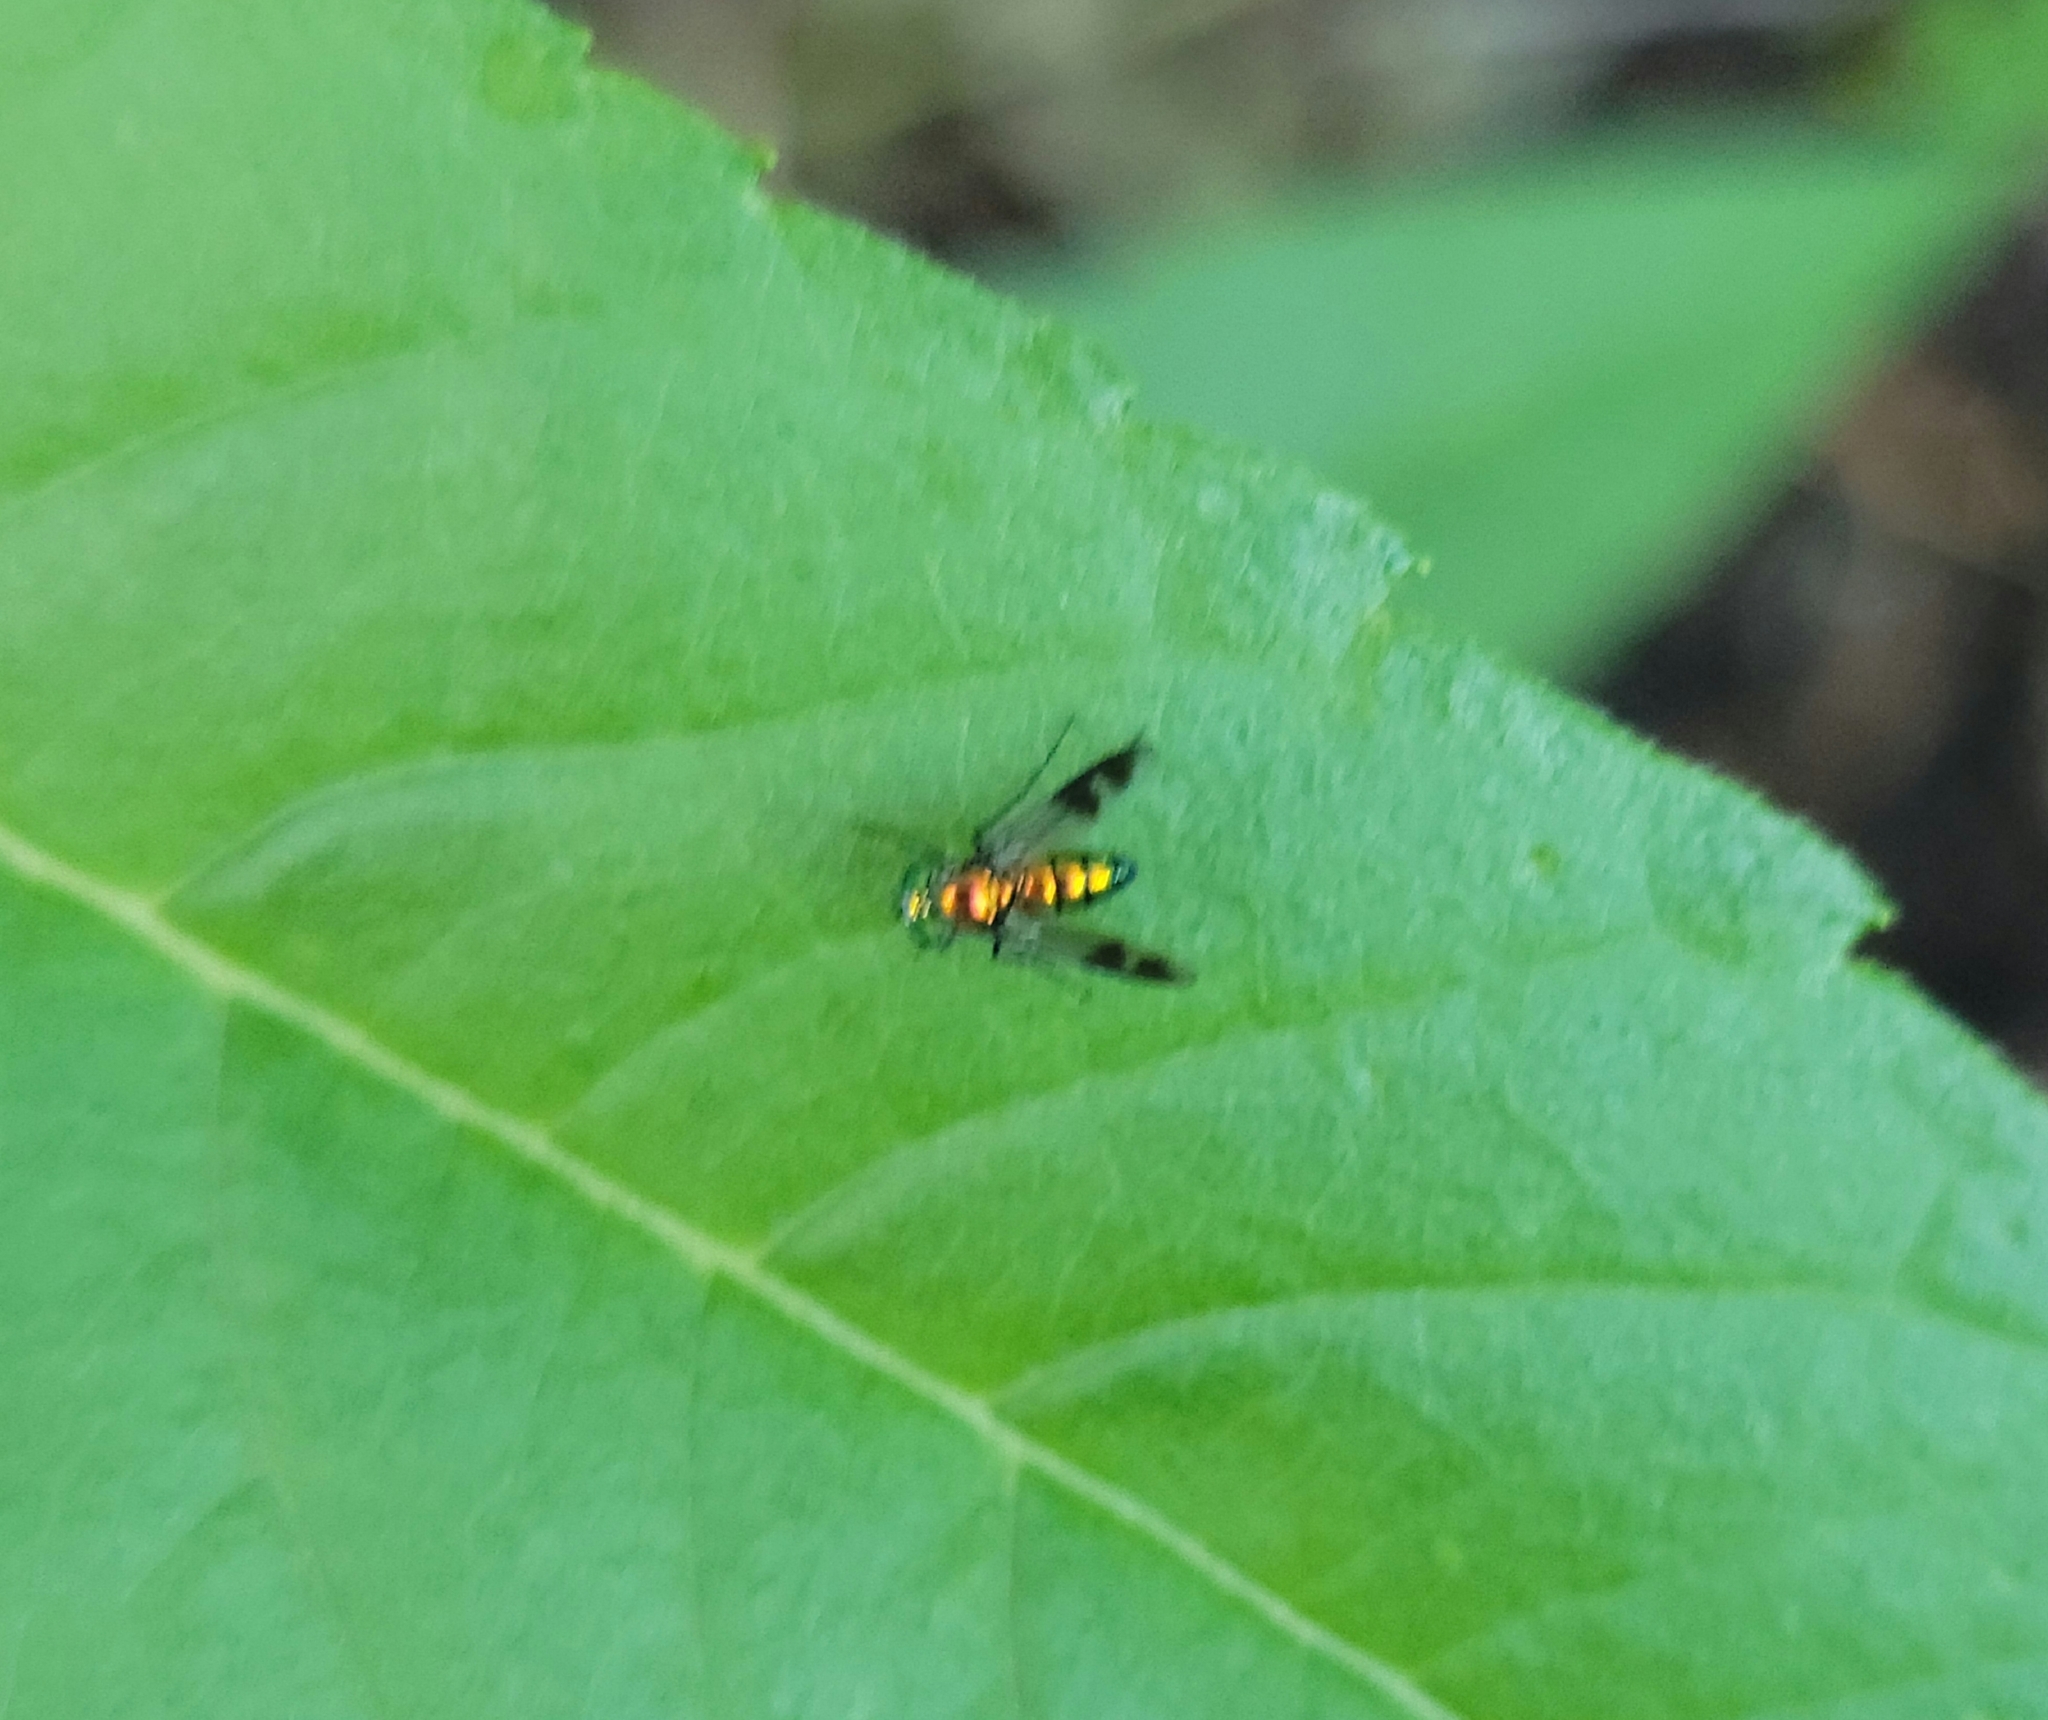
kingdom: Animalia
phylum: Arthropoda
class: Insecta
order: Diptera
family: Dolichopodidae
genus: Condylostylus
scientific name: Condylostylus patibulatus
